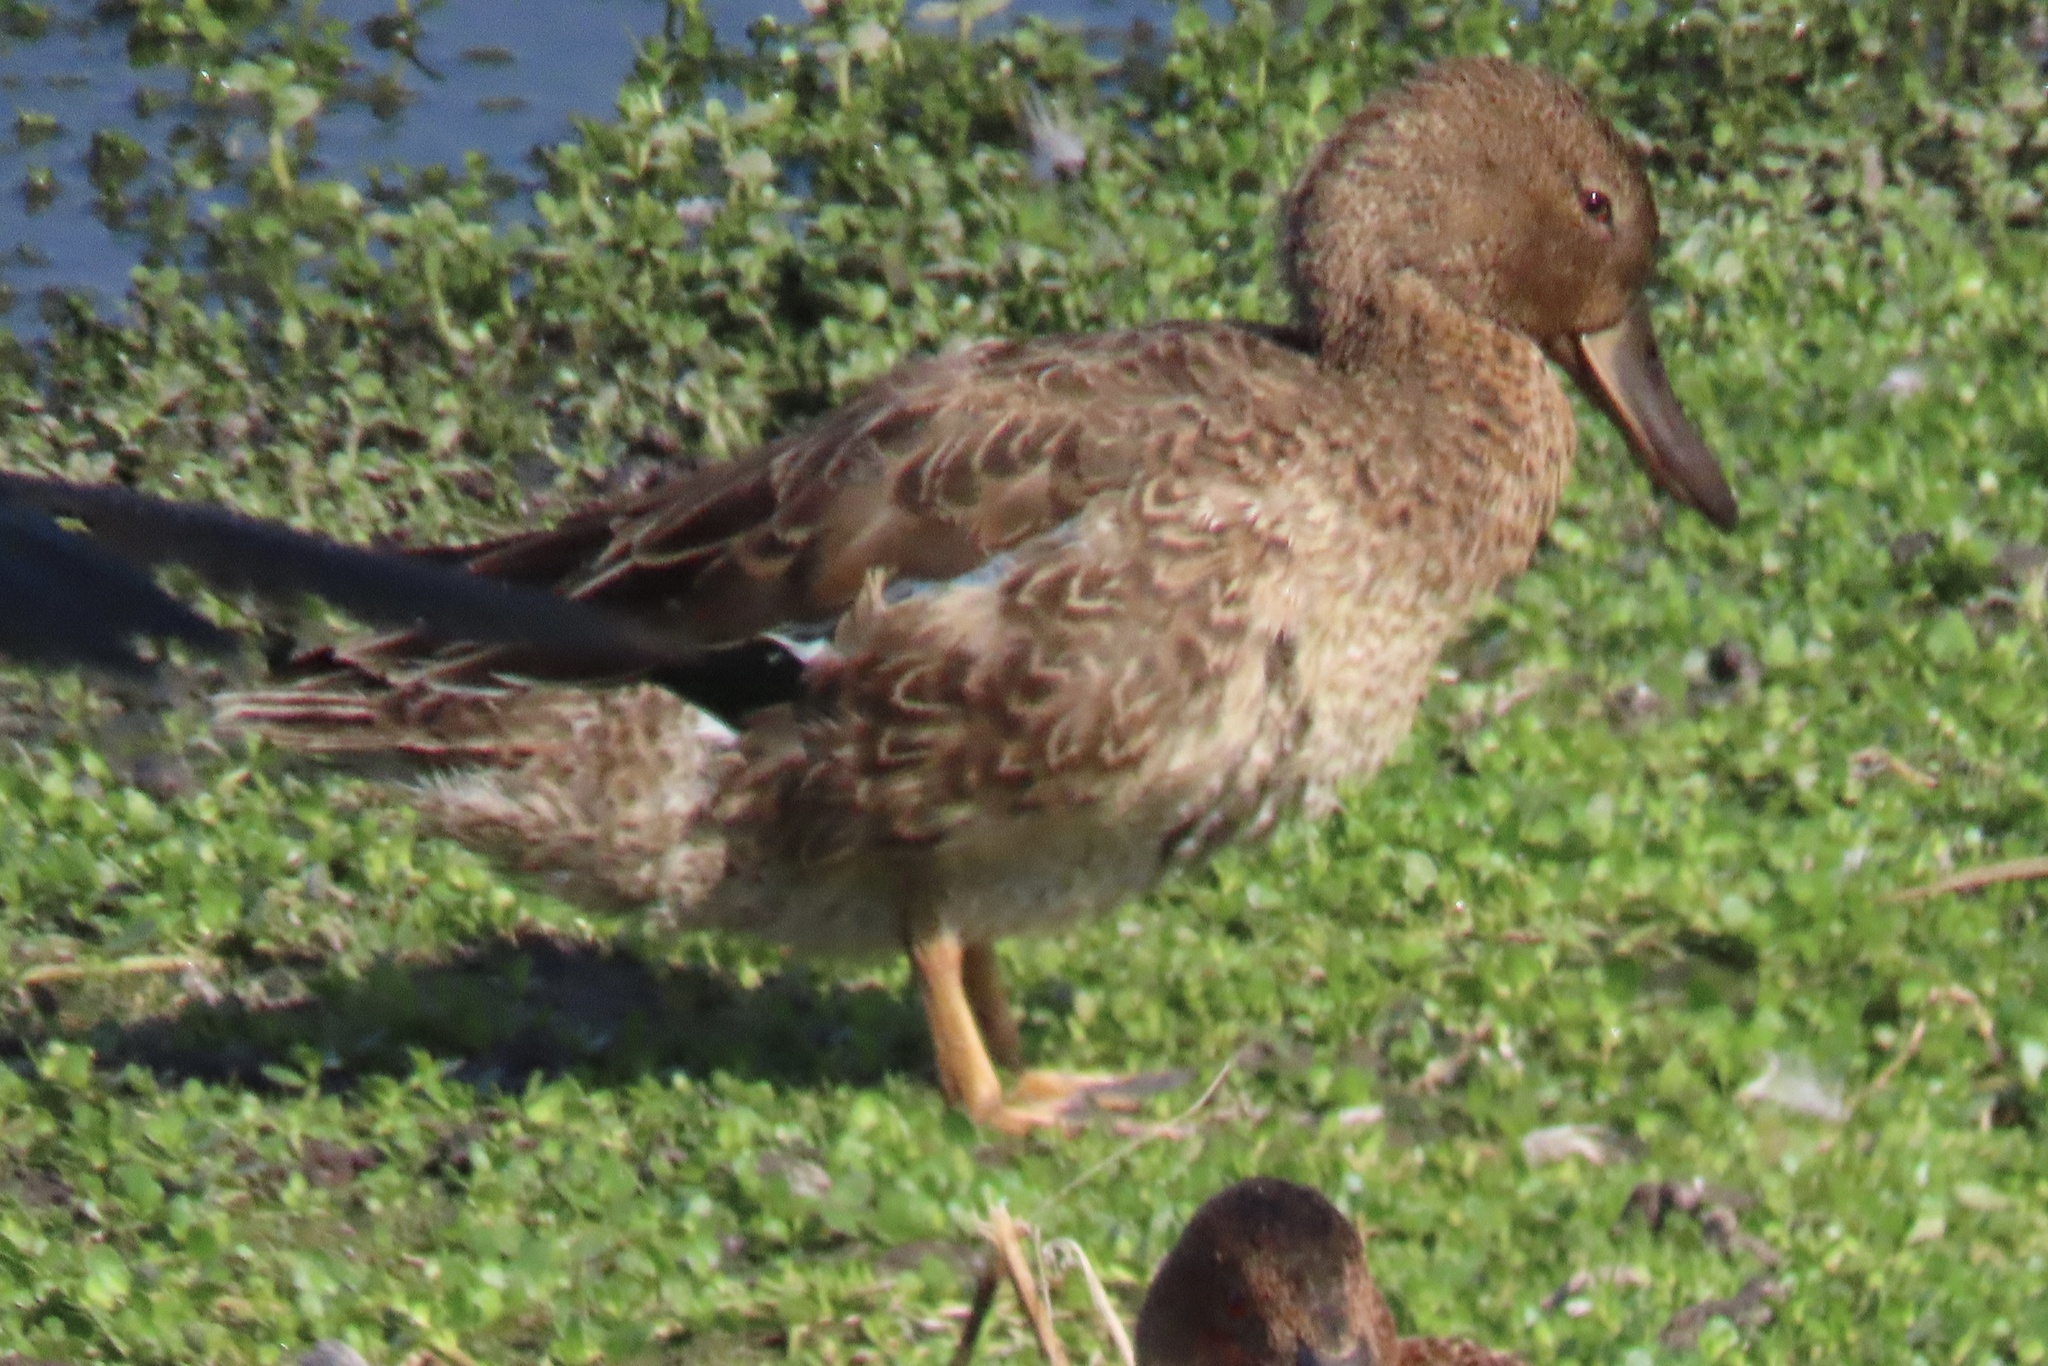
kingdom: Animalia
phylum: Chordata
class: Aves
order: Anseriformes
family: Anatidae
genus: Spatula
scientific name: Spatula cyanoptera
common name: Cinnamon teal
